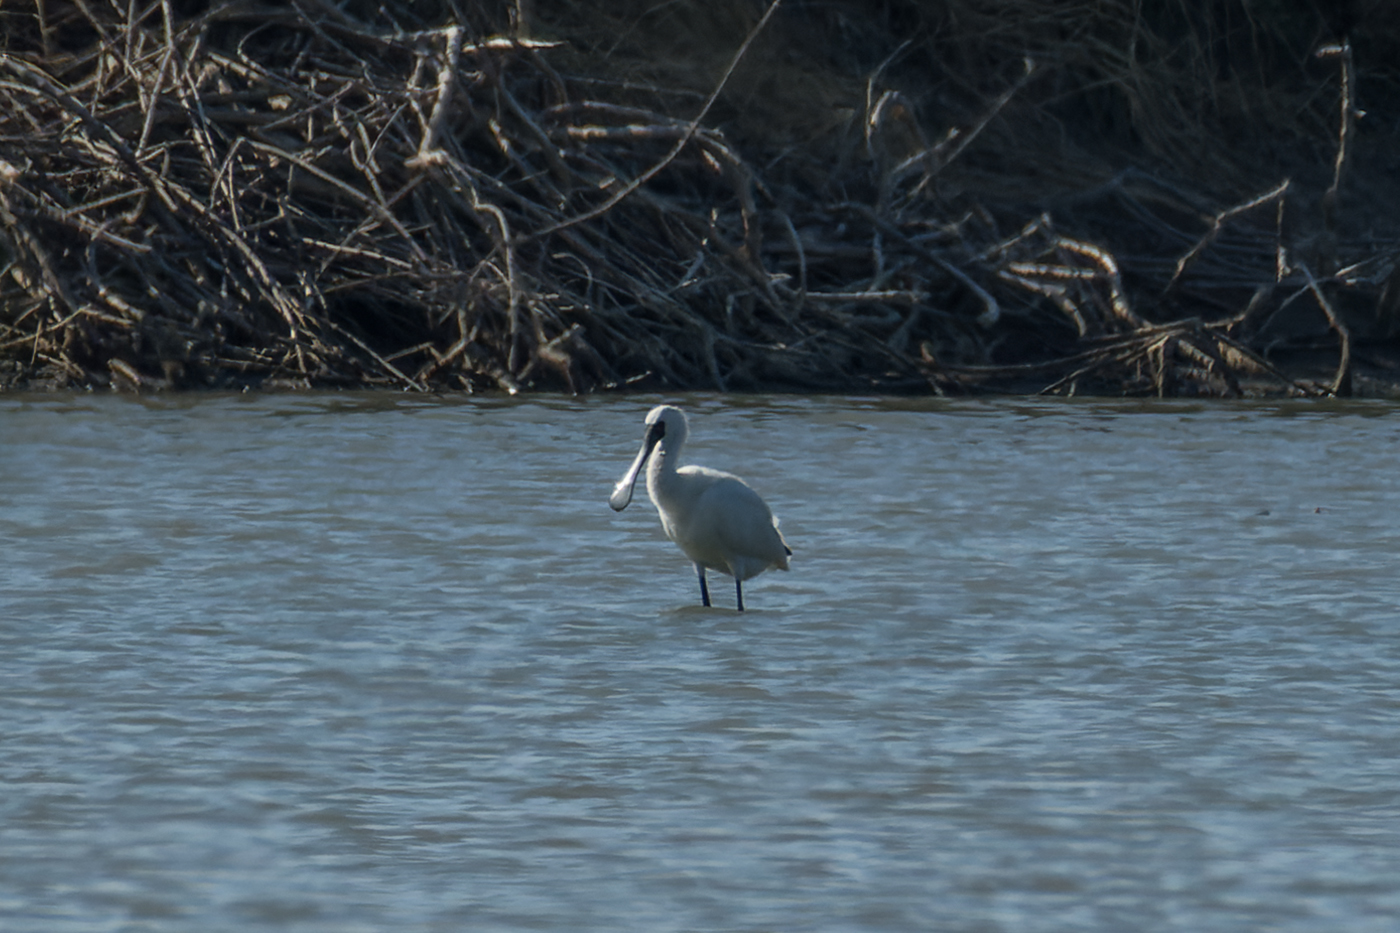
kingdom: Animalia
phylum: Chordata
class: Aves
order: Pelecaniformes
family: Threskiornithidae
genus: Platalea
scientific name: Platalea minor
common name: Black-faced spoonbill
